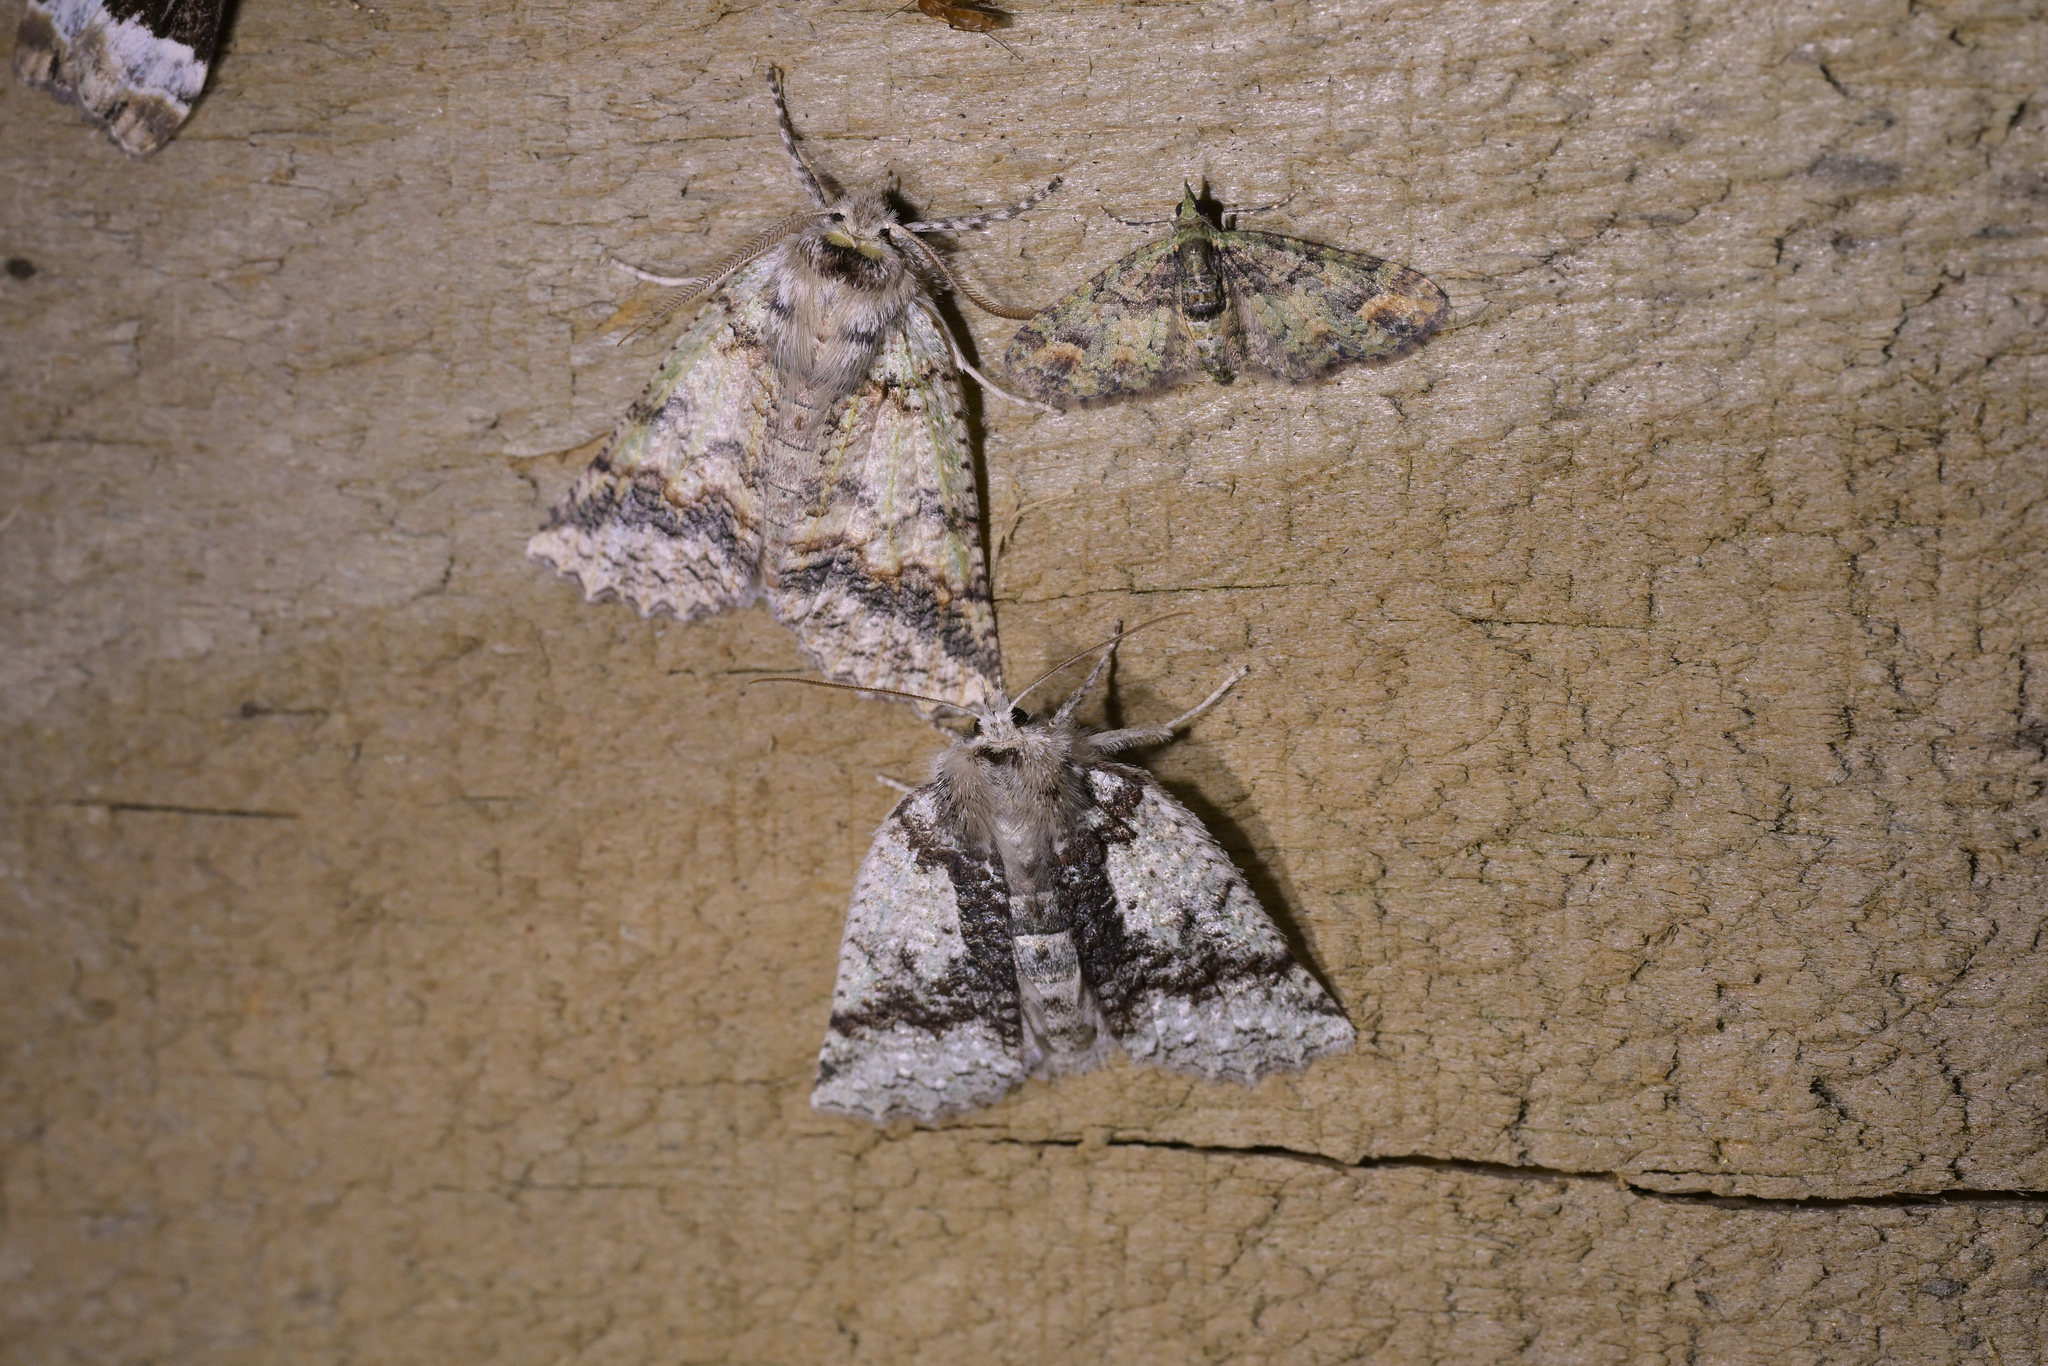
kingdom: Animalia
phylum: Arthropoda
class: Insecta
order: Lepidoptera
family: Geometridae
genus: Declana
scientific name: Declana floccosa
